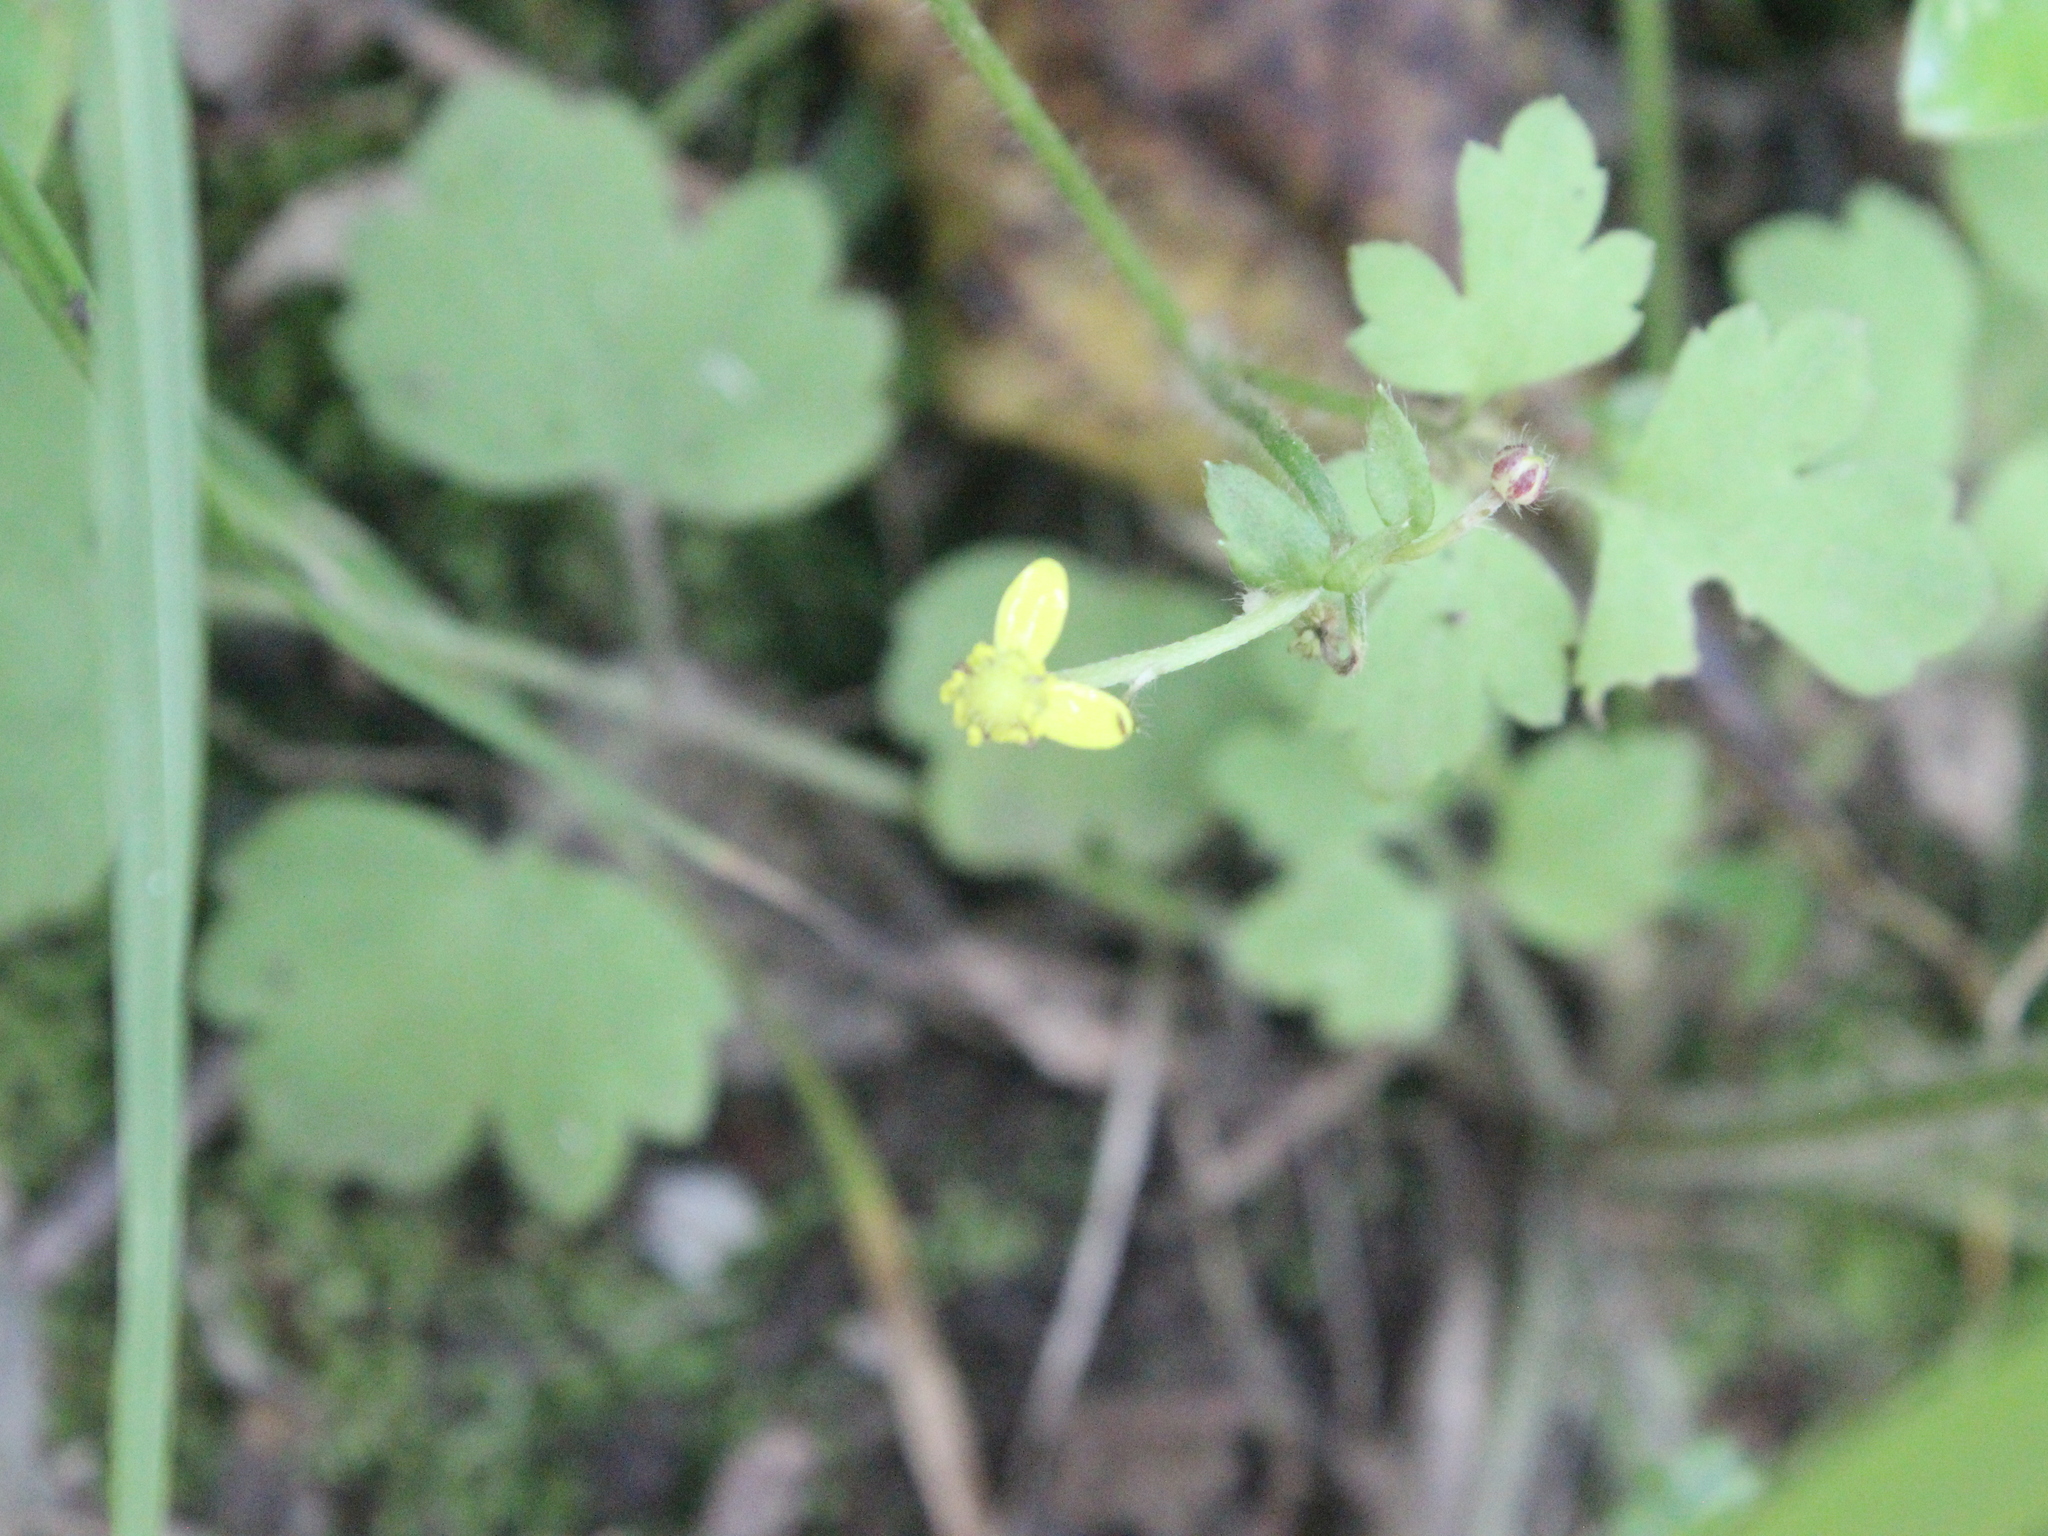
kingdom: Plantae
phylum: Tracheophyta
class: Magnoliopsida
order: Ranunculales
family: Ranunculaceae
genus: Ranunculus
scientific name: Ranunculus reflexus
